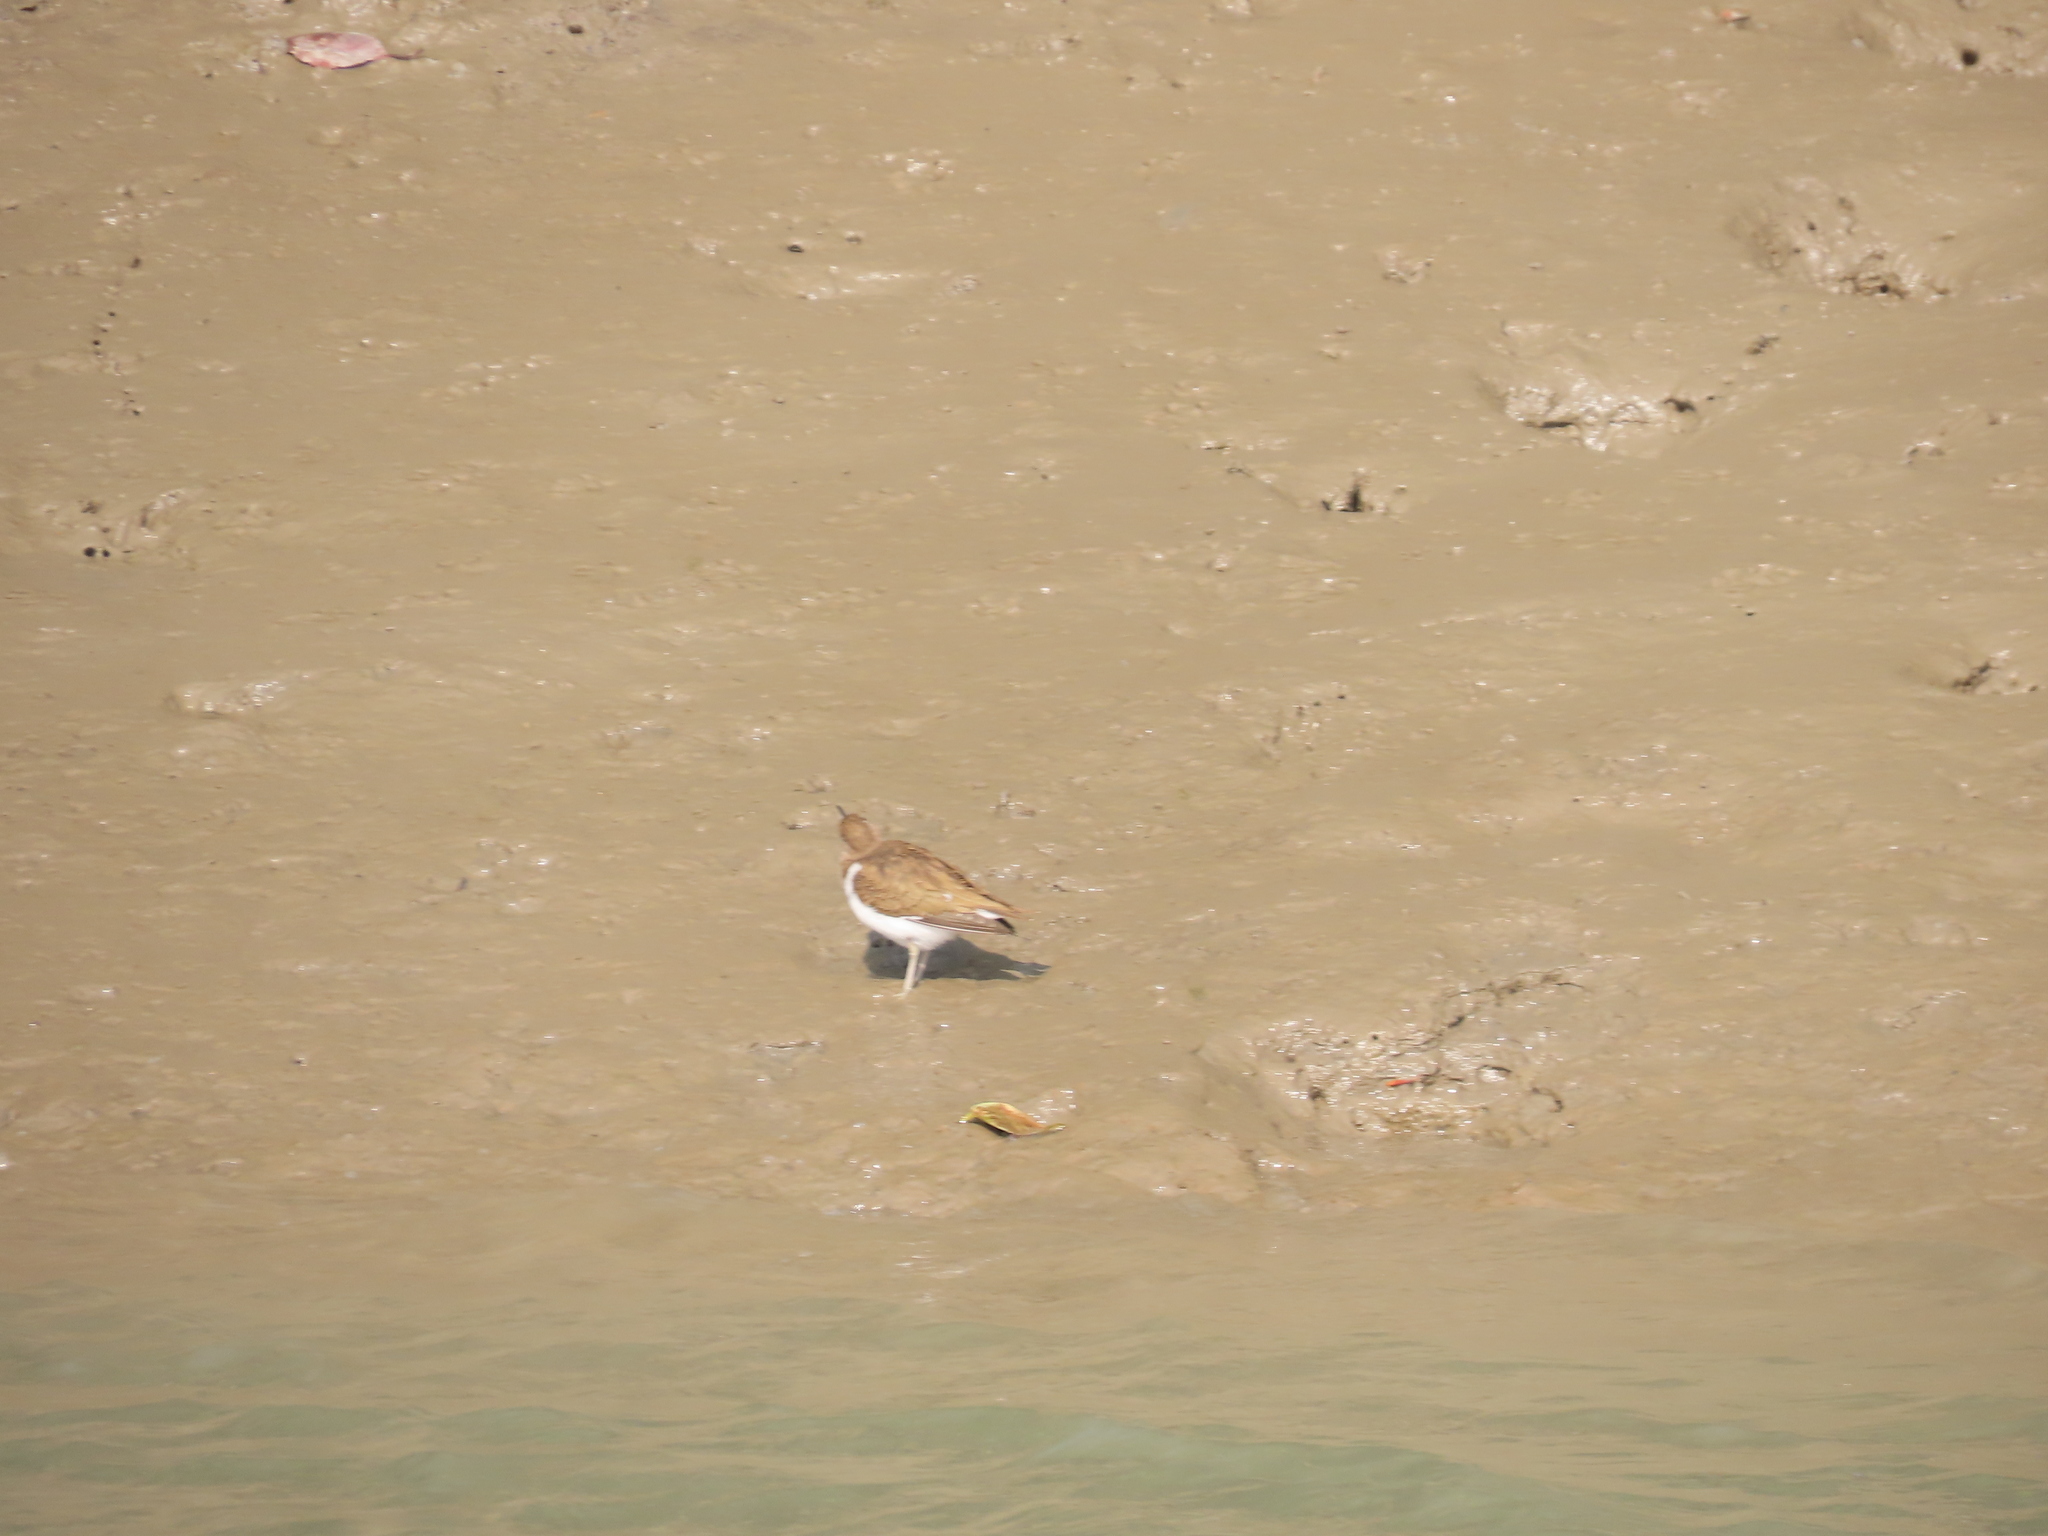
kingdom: Animalia
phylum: Chordata
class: Aves
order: Charadriiformes
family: Scolopacidae
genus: Actitis
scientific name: Actitis hypoleucos
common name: Common sandpiper
